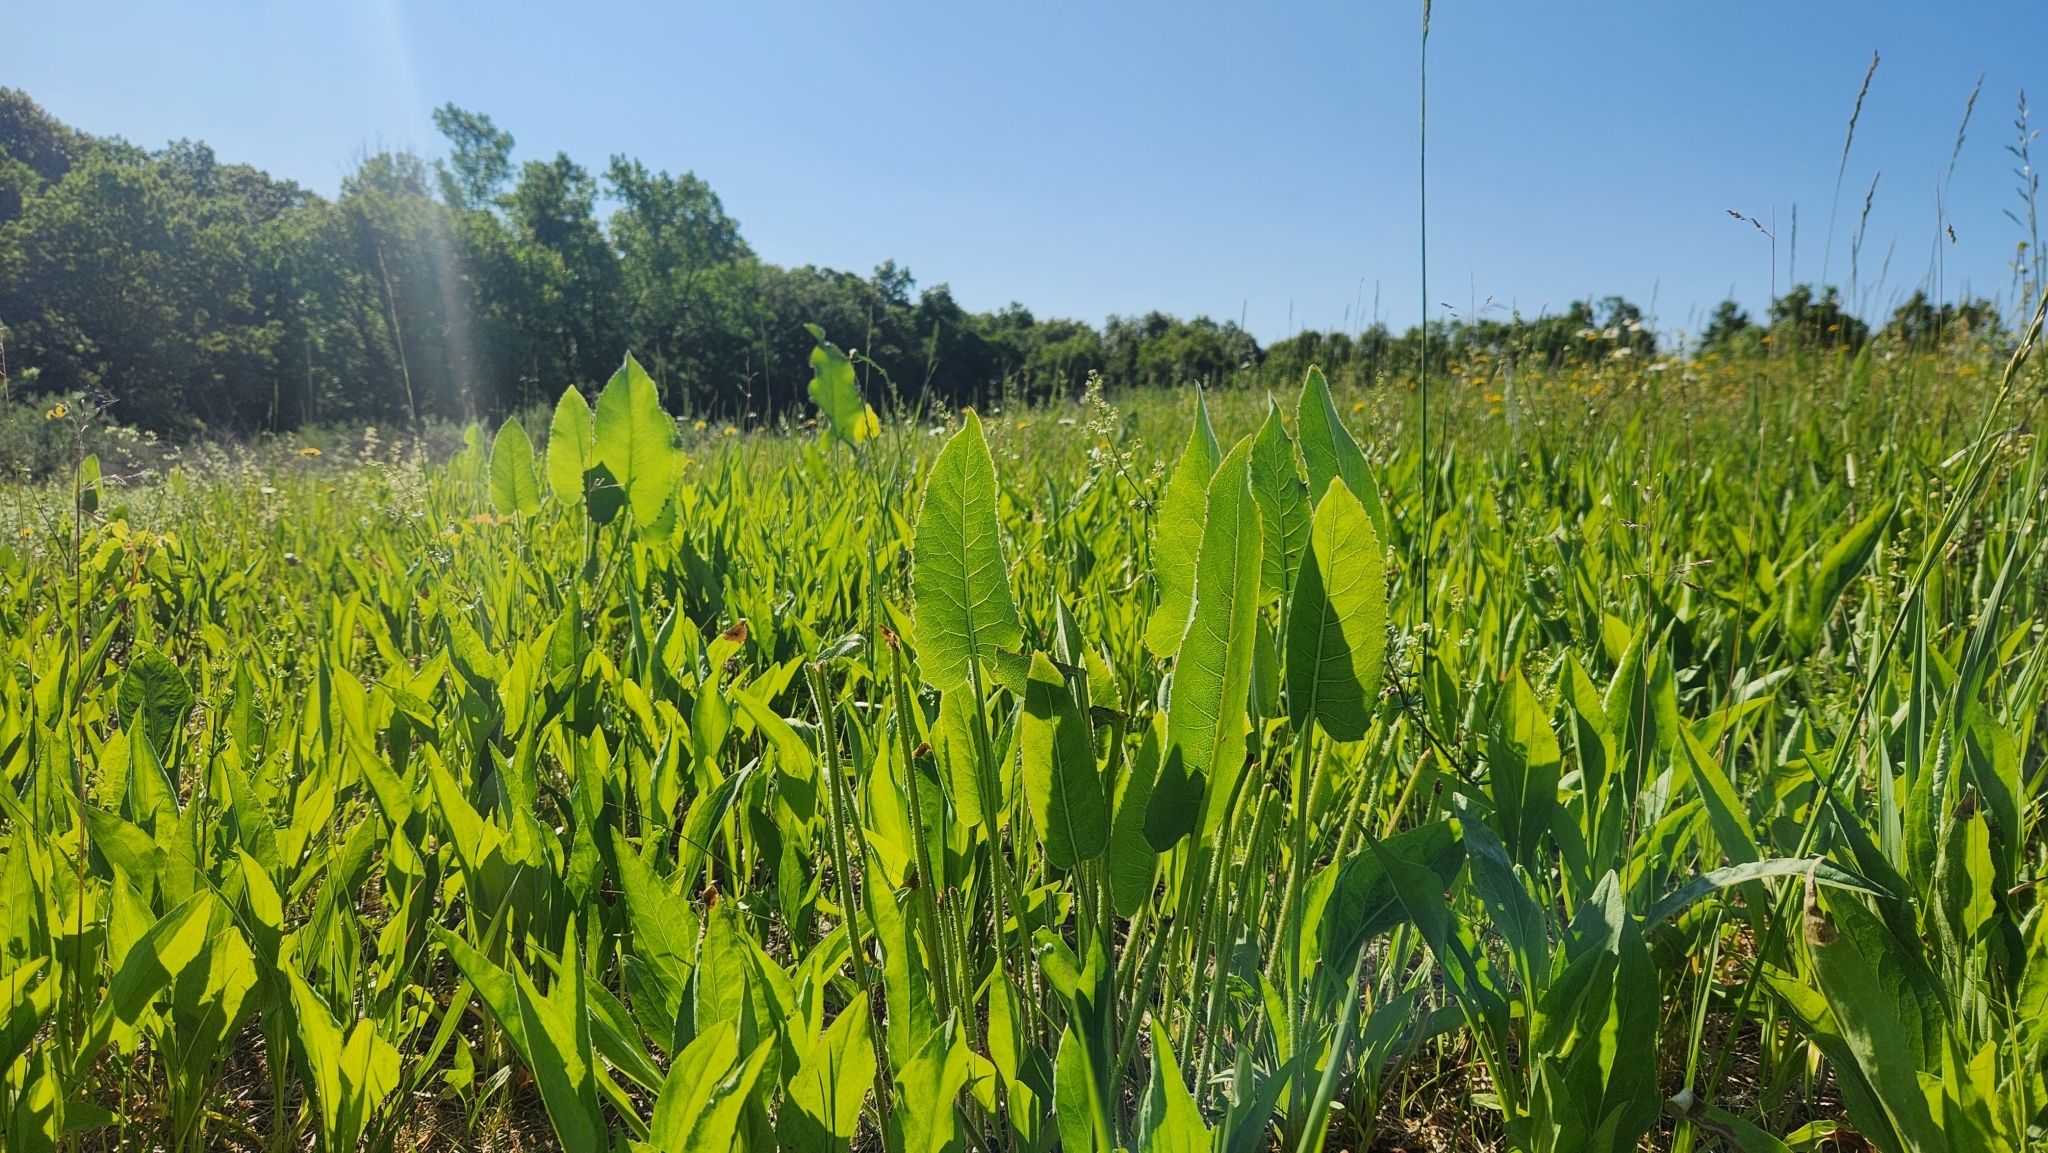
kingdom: Plantae
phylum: Tracheophyta
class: Magnoliopsida
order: Asterales
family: Asteraceae
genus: Silphium
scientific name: Silphium terebinthinaceum
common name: Basal-leaf rosinweed
